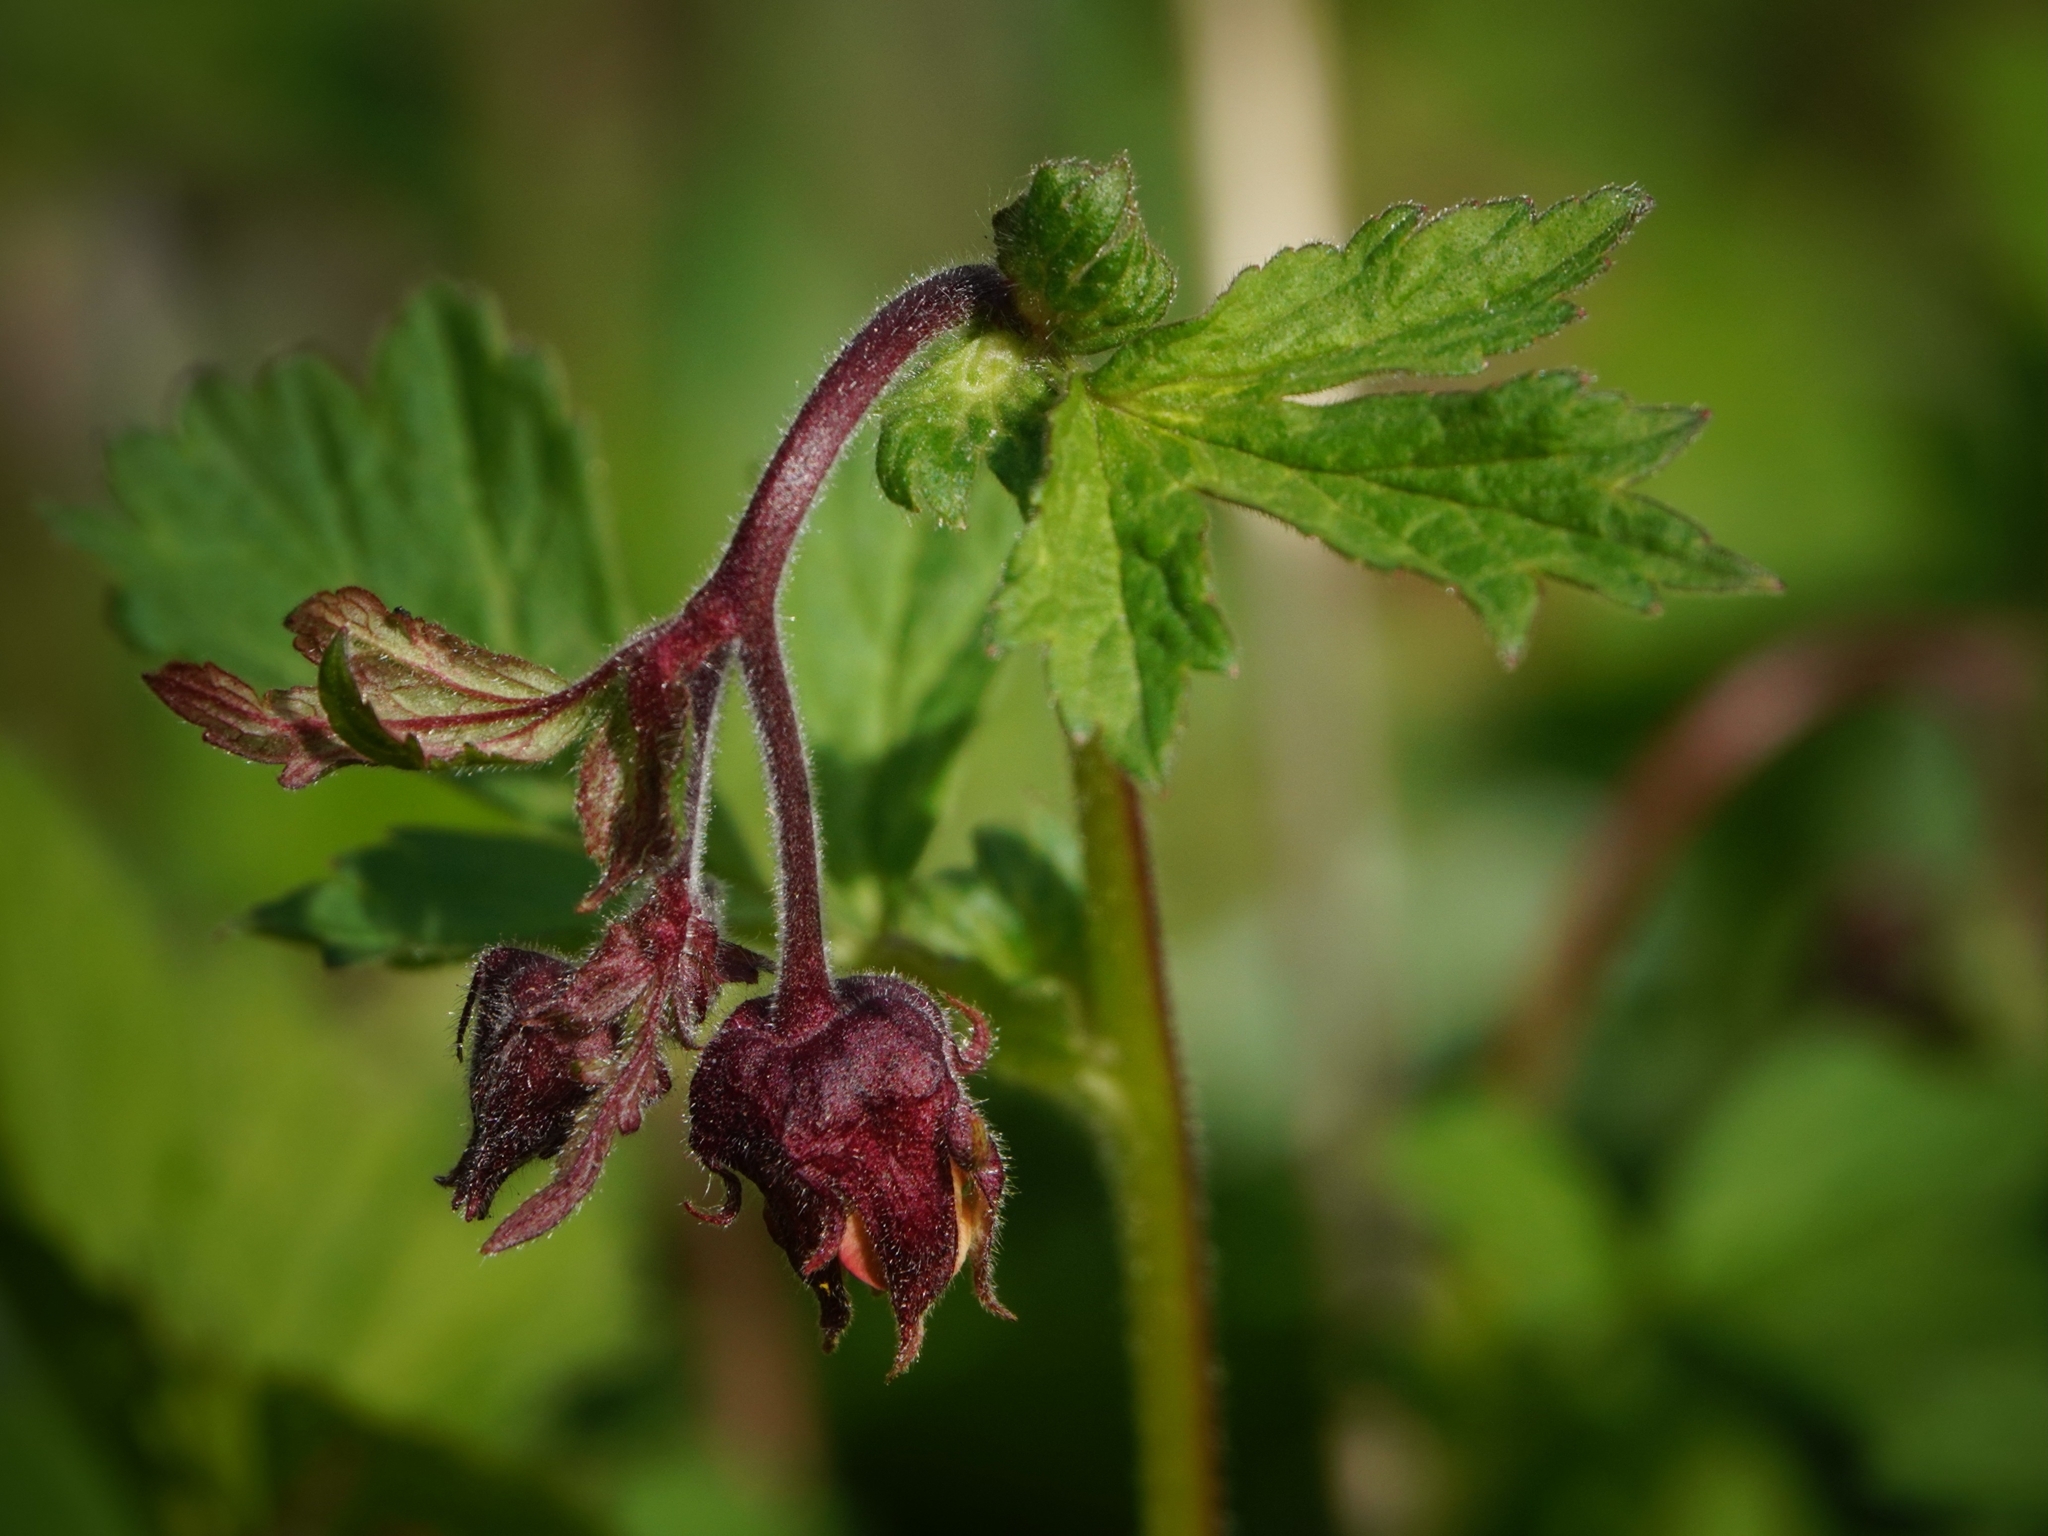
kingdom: Plantae
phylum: Tracheophyta
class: Magnoliopsida
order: Rosales
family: Rosaceae
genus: Geum
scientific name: Geum rivale
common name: Water avens
